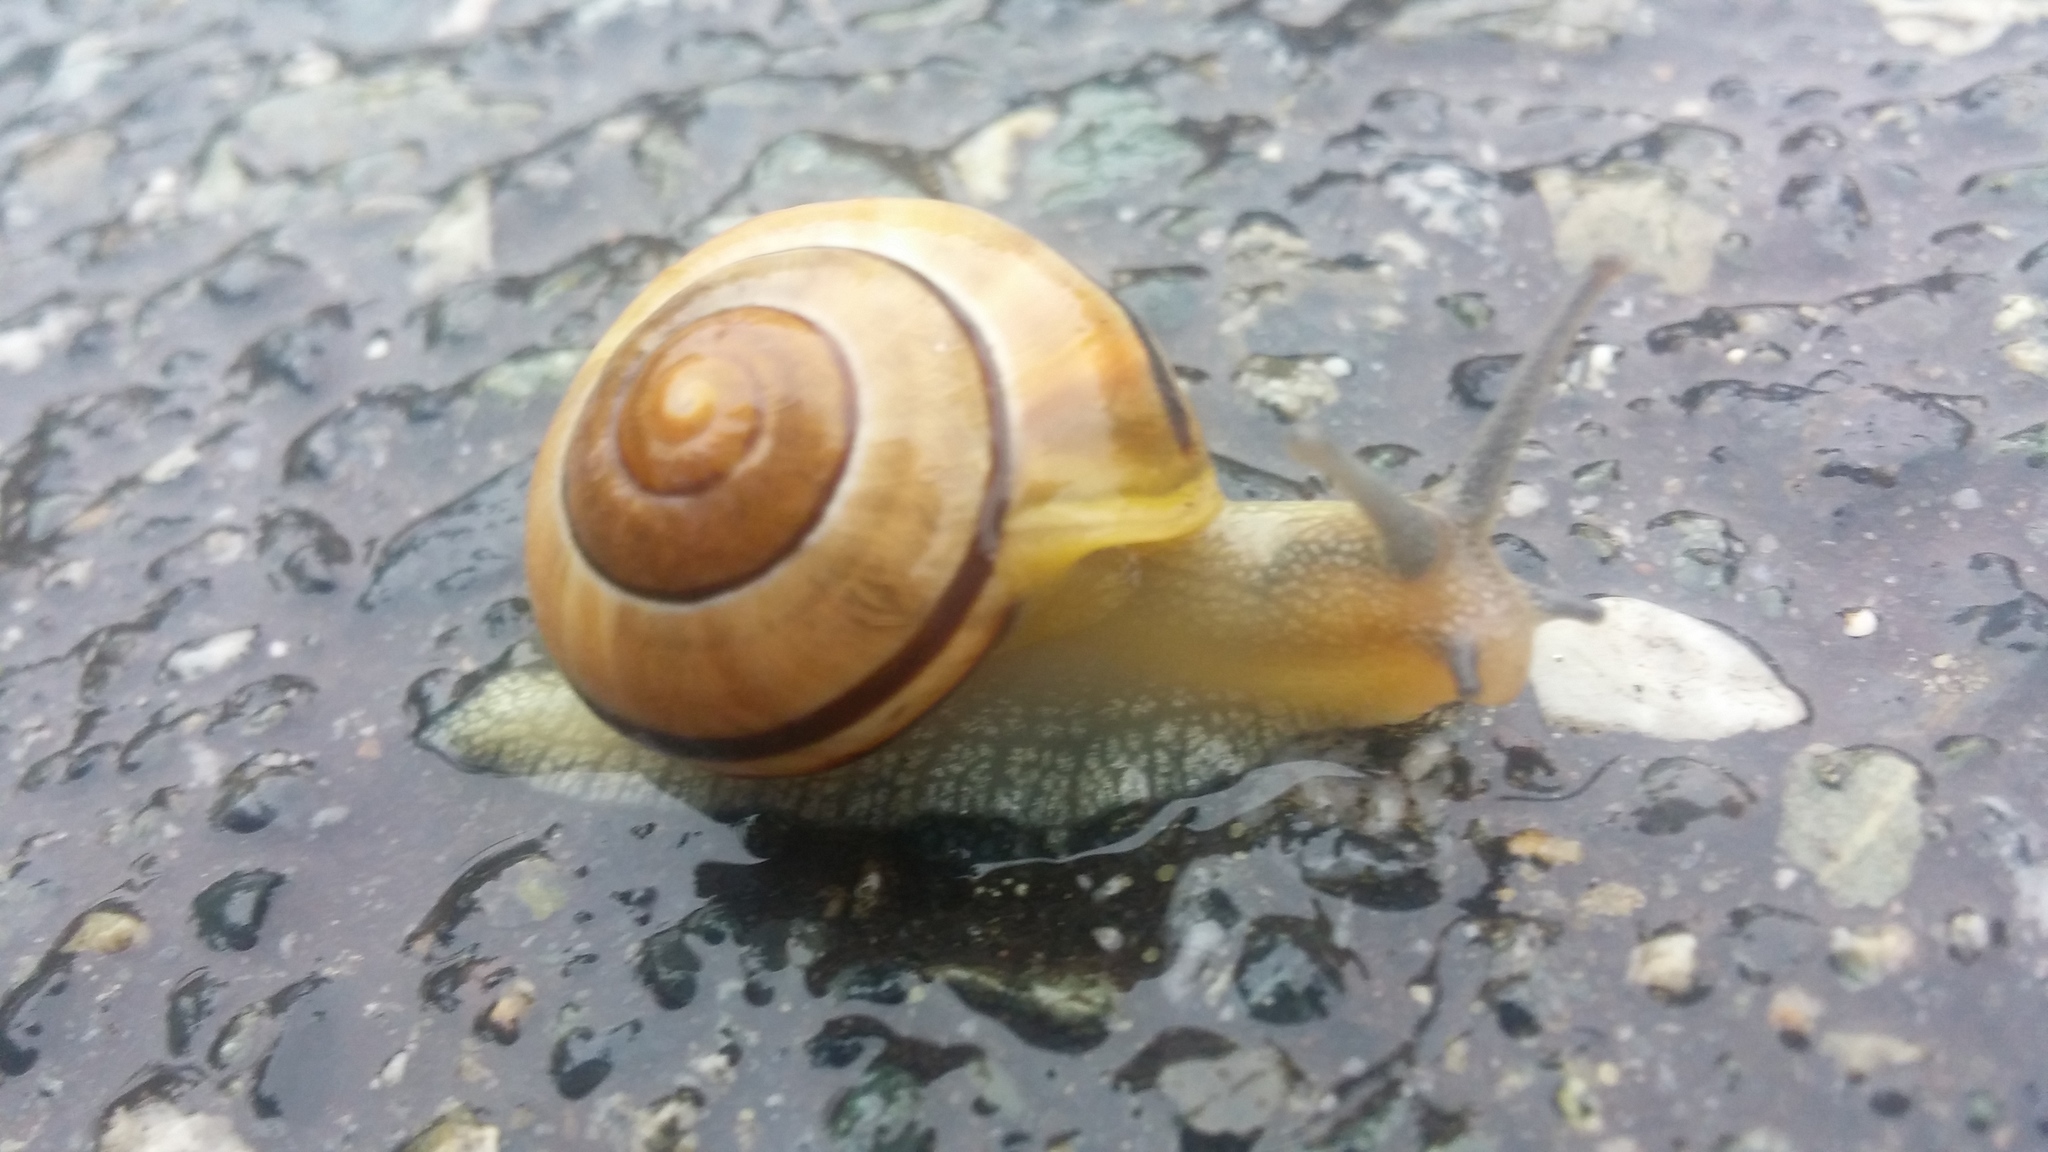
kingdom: Animalia
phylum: Mollusca
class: Gastropoda
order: Stylommatophora
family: Helicidae
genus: Cepaea
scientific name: Cepaea nemoralis
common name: Grovesnail
